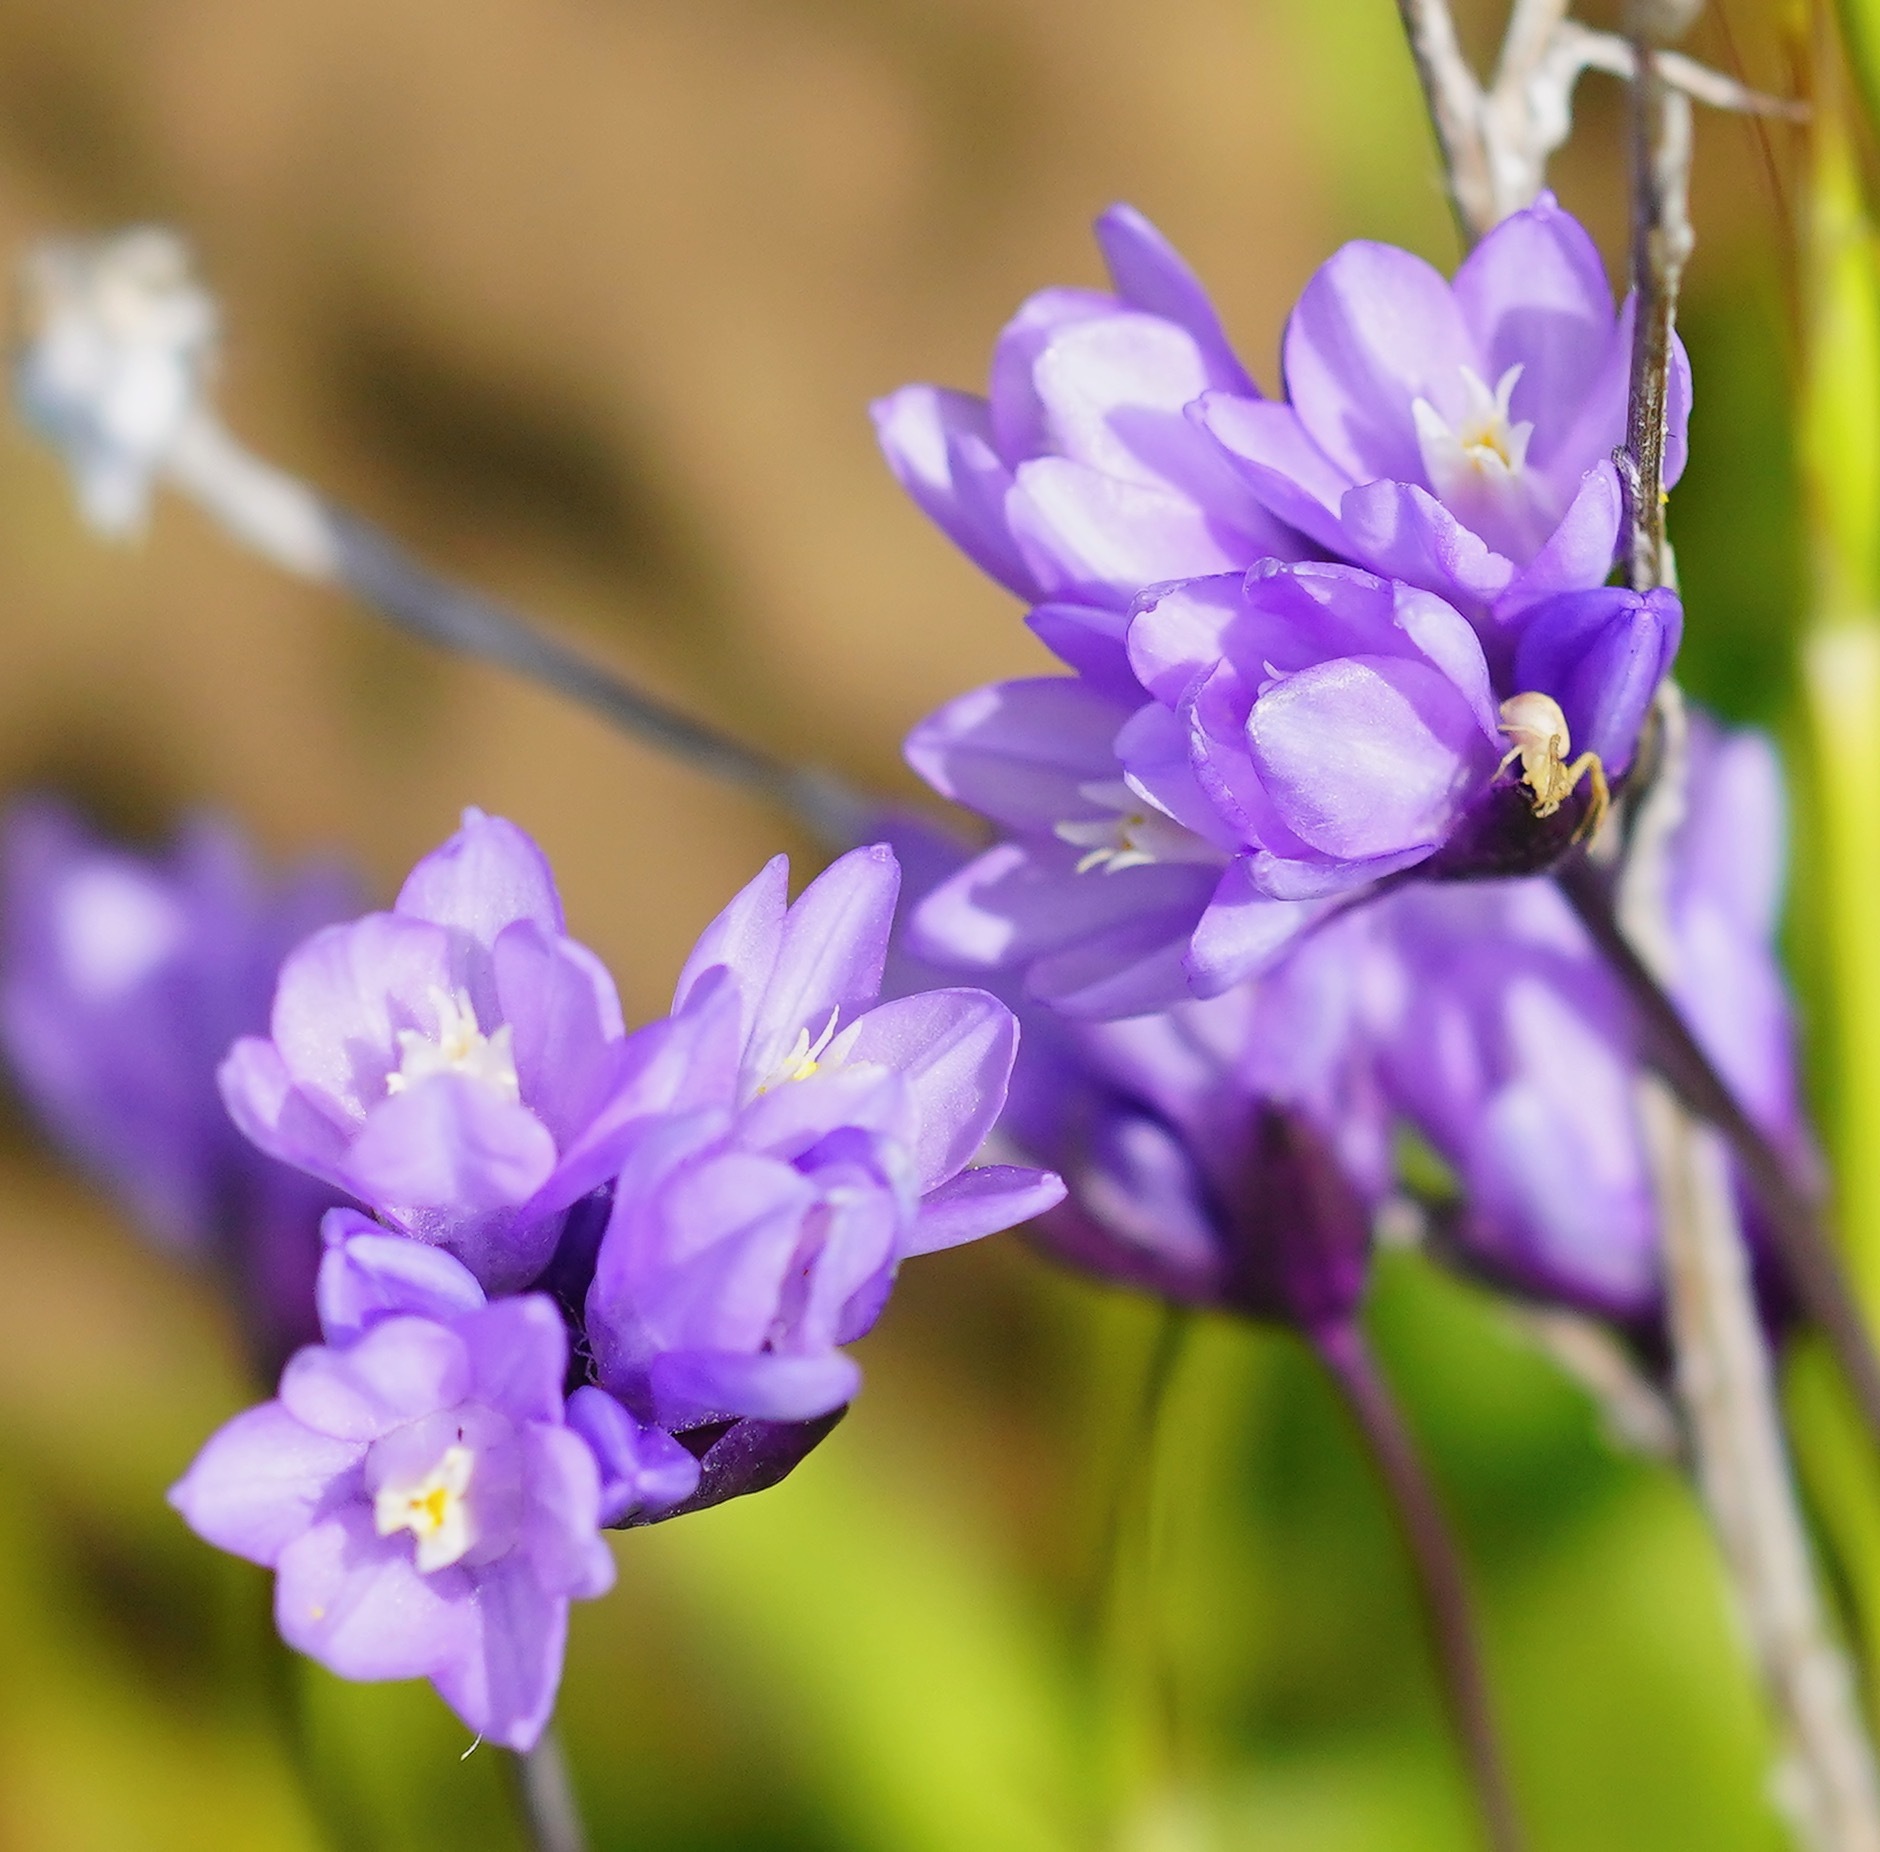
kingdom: Plantae
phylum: Tracheophyta
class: Liliopsida
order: Asparagales
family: Asparagaceae
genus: Dipterostemon
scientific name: Dipterostemon capitatus
